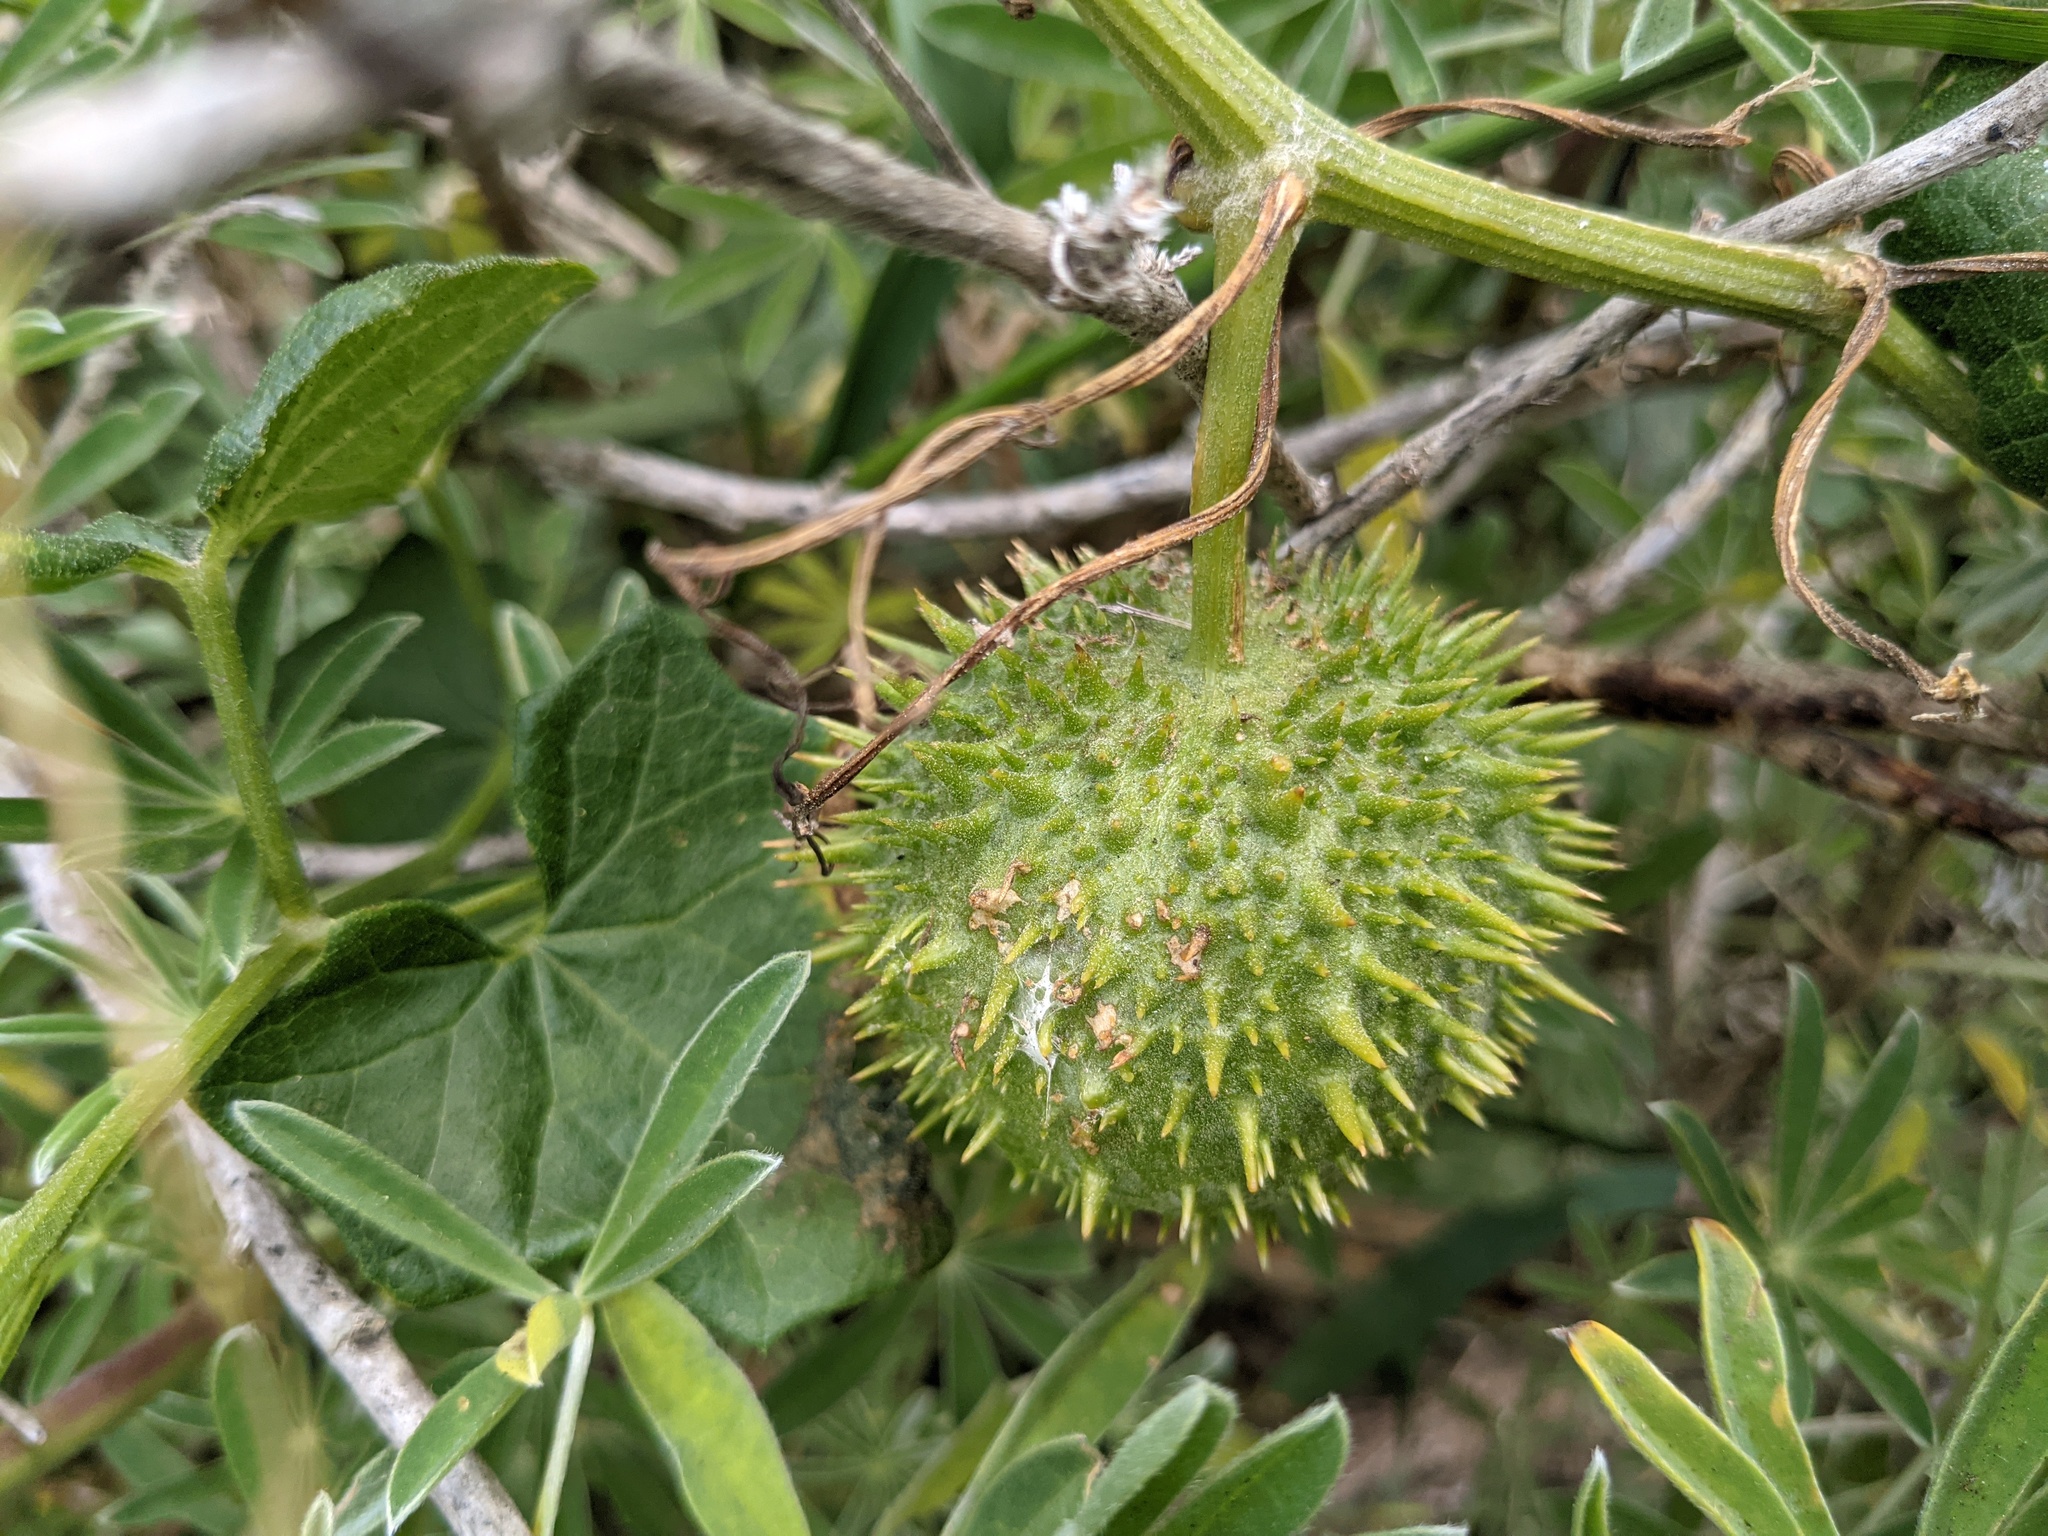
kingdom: Plantae
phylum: Tracheophyta
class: Magnoliopsida
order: Cucurbitales
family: Cucurbitaceae
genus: Marah
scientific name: Marah fabacea
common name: California manroot
